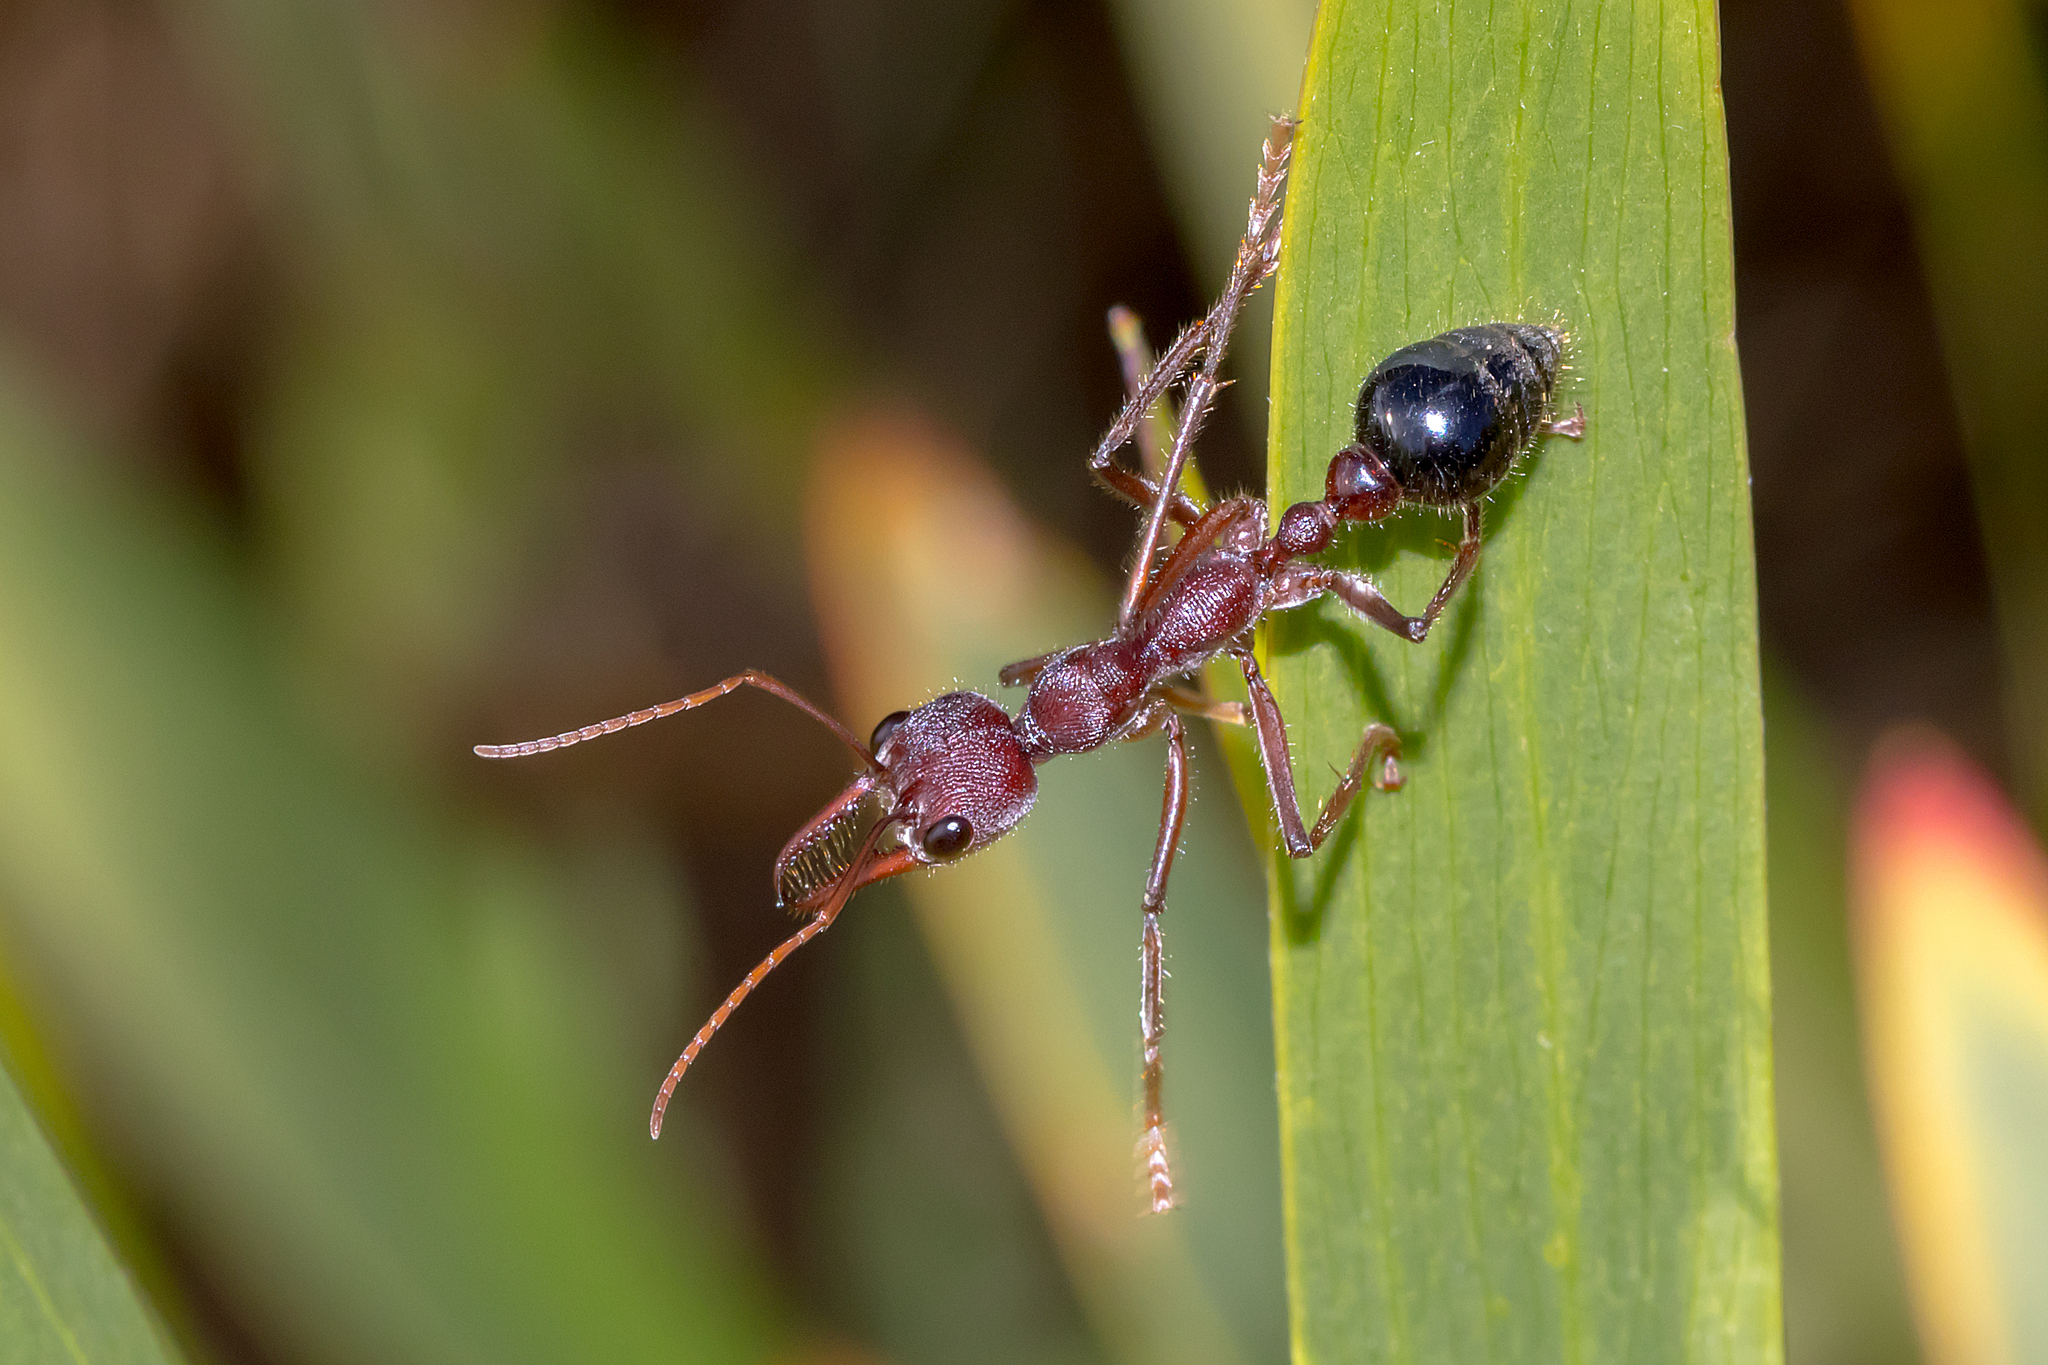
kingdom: Animalia
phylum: Arthropoda
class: Insecta
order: Hymenoptera
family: Formicidae
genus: Myrmecia
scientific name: Myrmecia simillima
